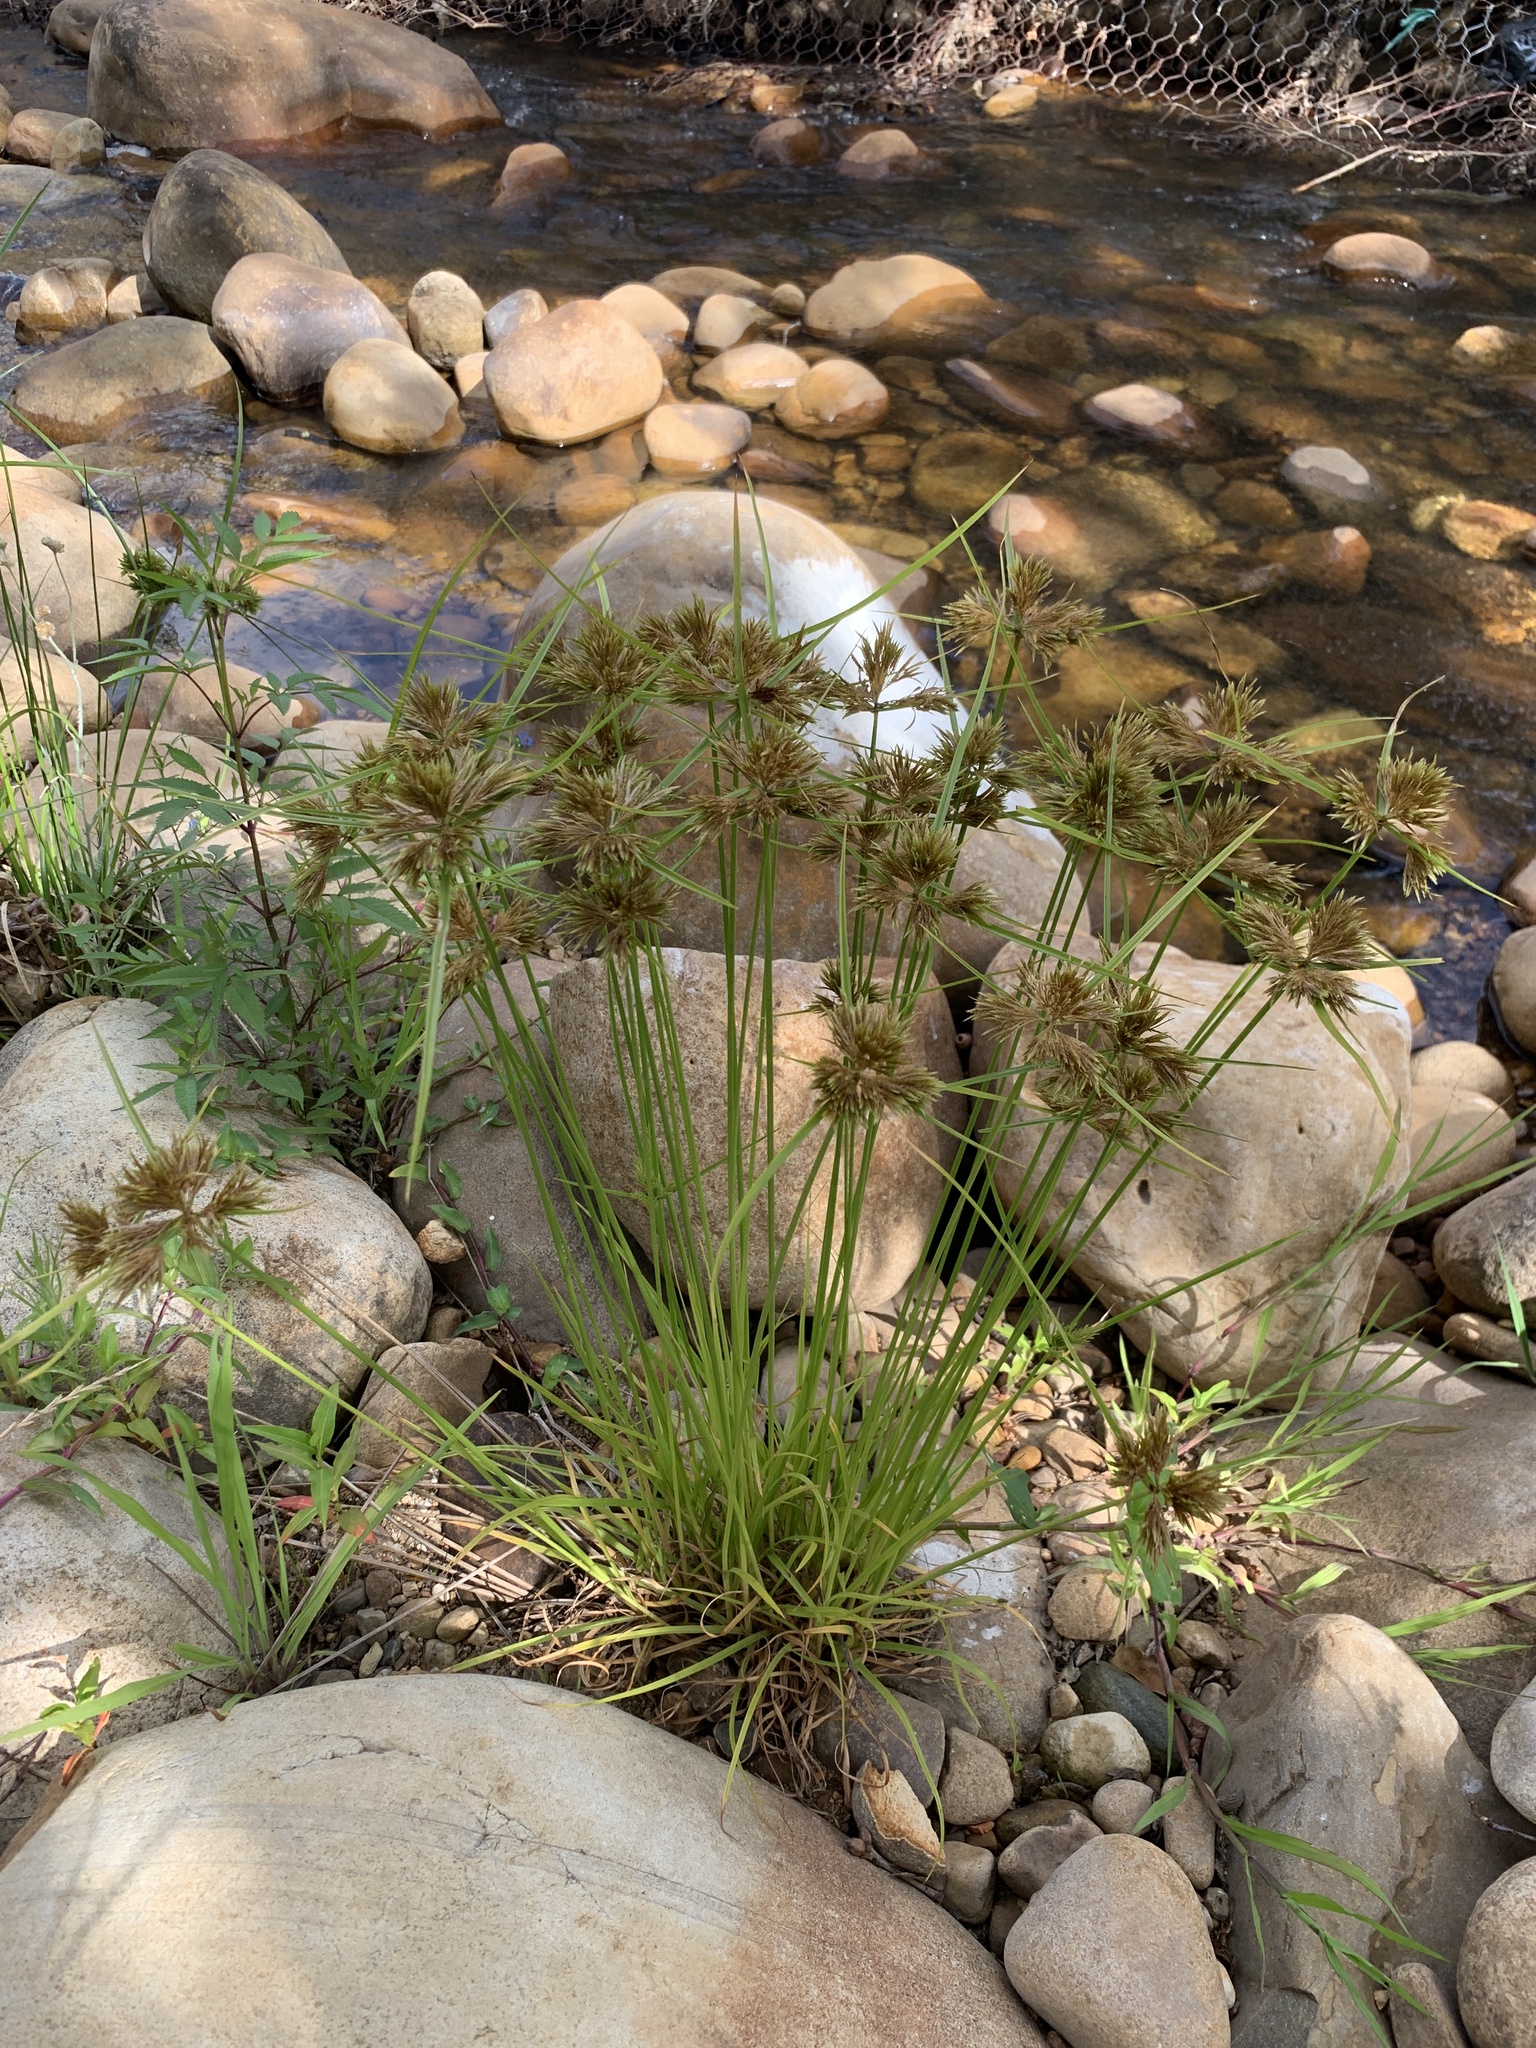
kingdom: Plantae
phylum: Tracheophyta
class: Liliopsida
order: Poales
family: Cyperaceae
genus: Cyperus
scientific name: Cyperus polystachyos
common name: Bunchy flat sedge
